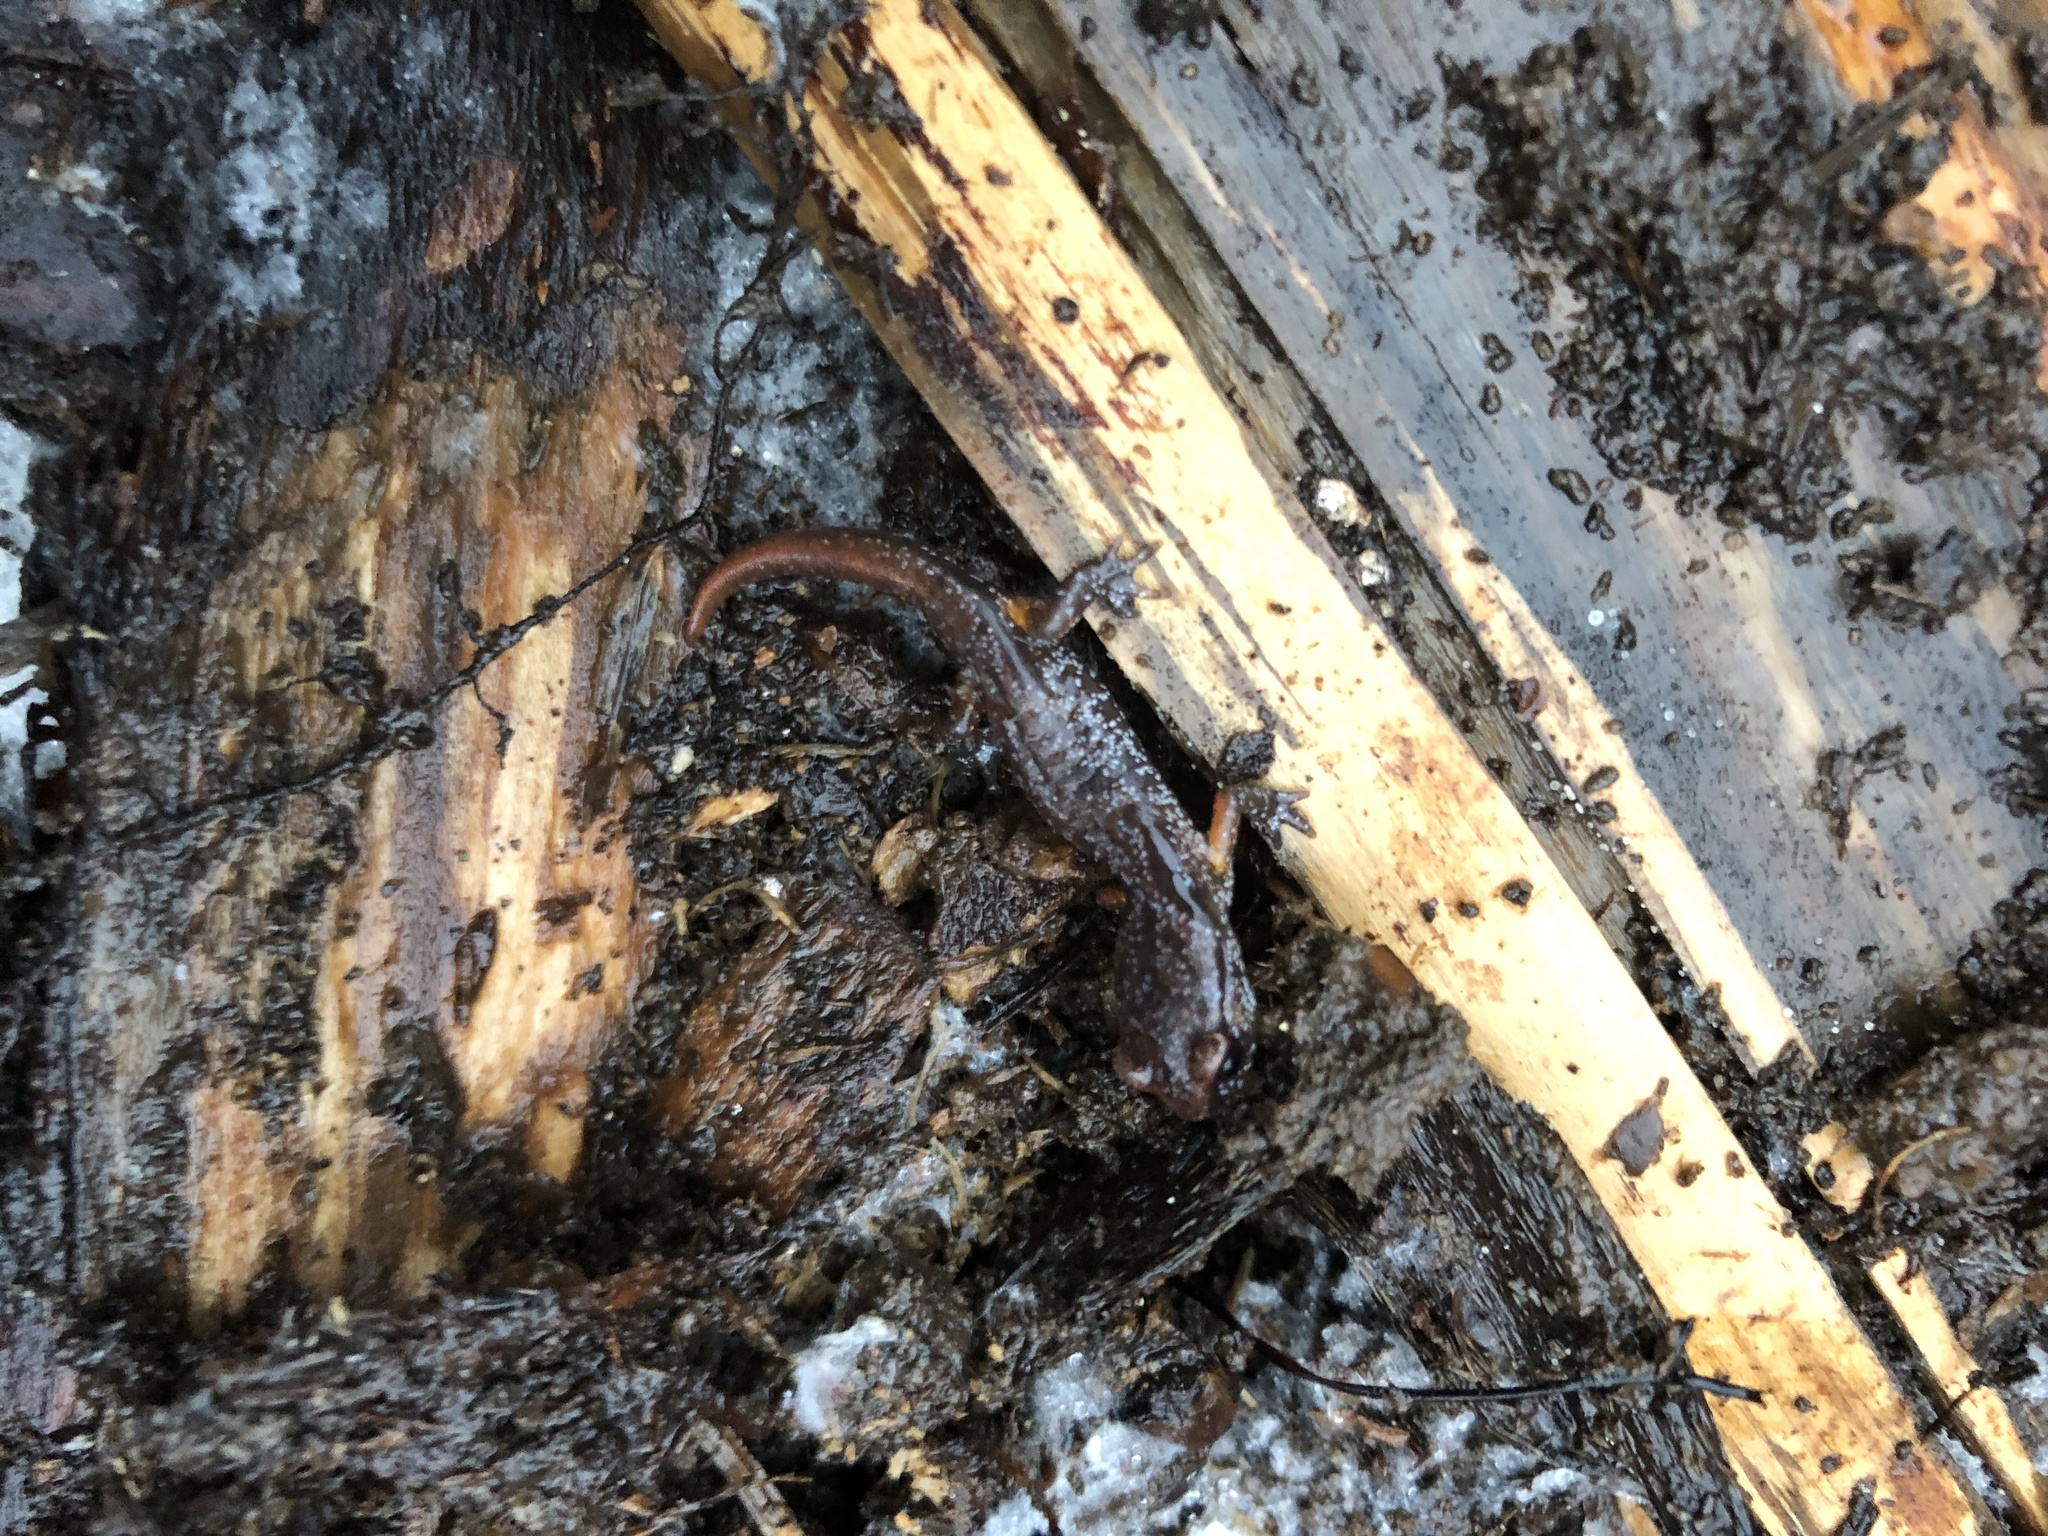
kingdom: Animalia
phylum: Chordata
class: Amphibia
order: Caudata
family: Plethodontidae
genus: Ensatina
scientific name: Ensatina eschscholtzii
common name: Ensatina
